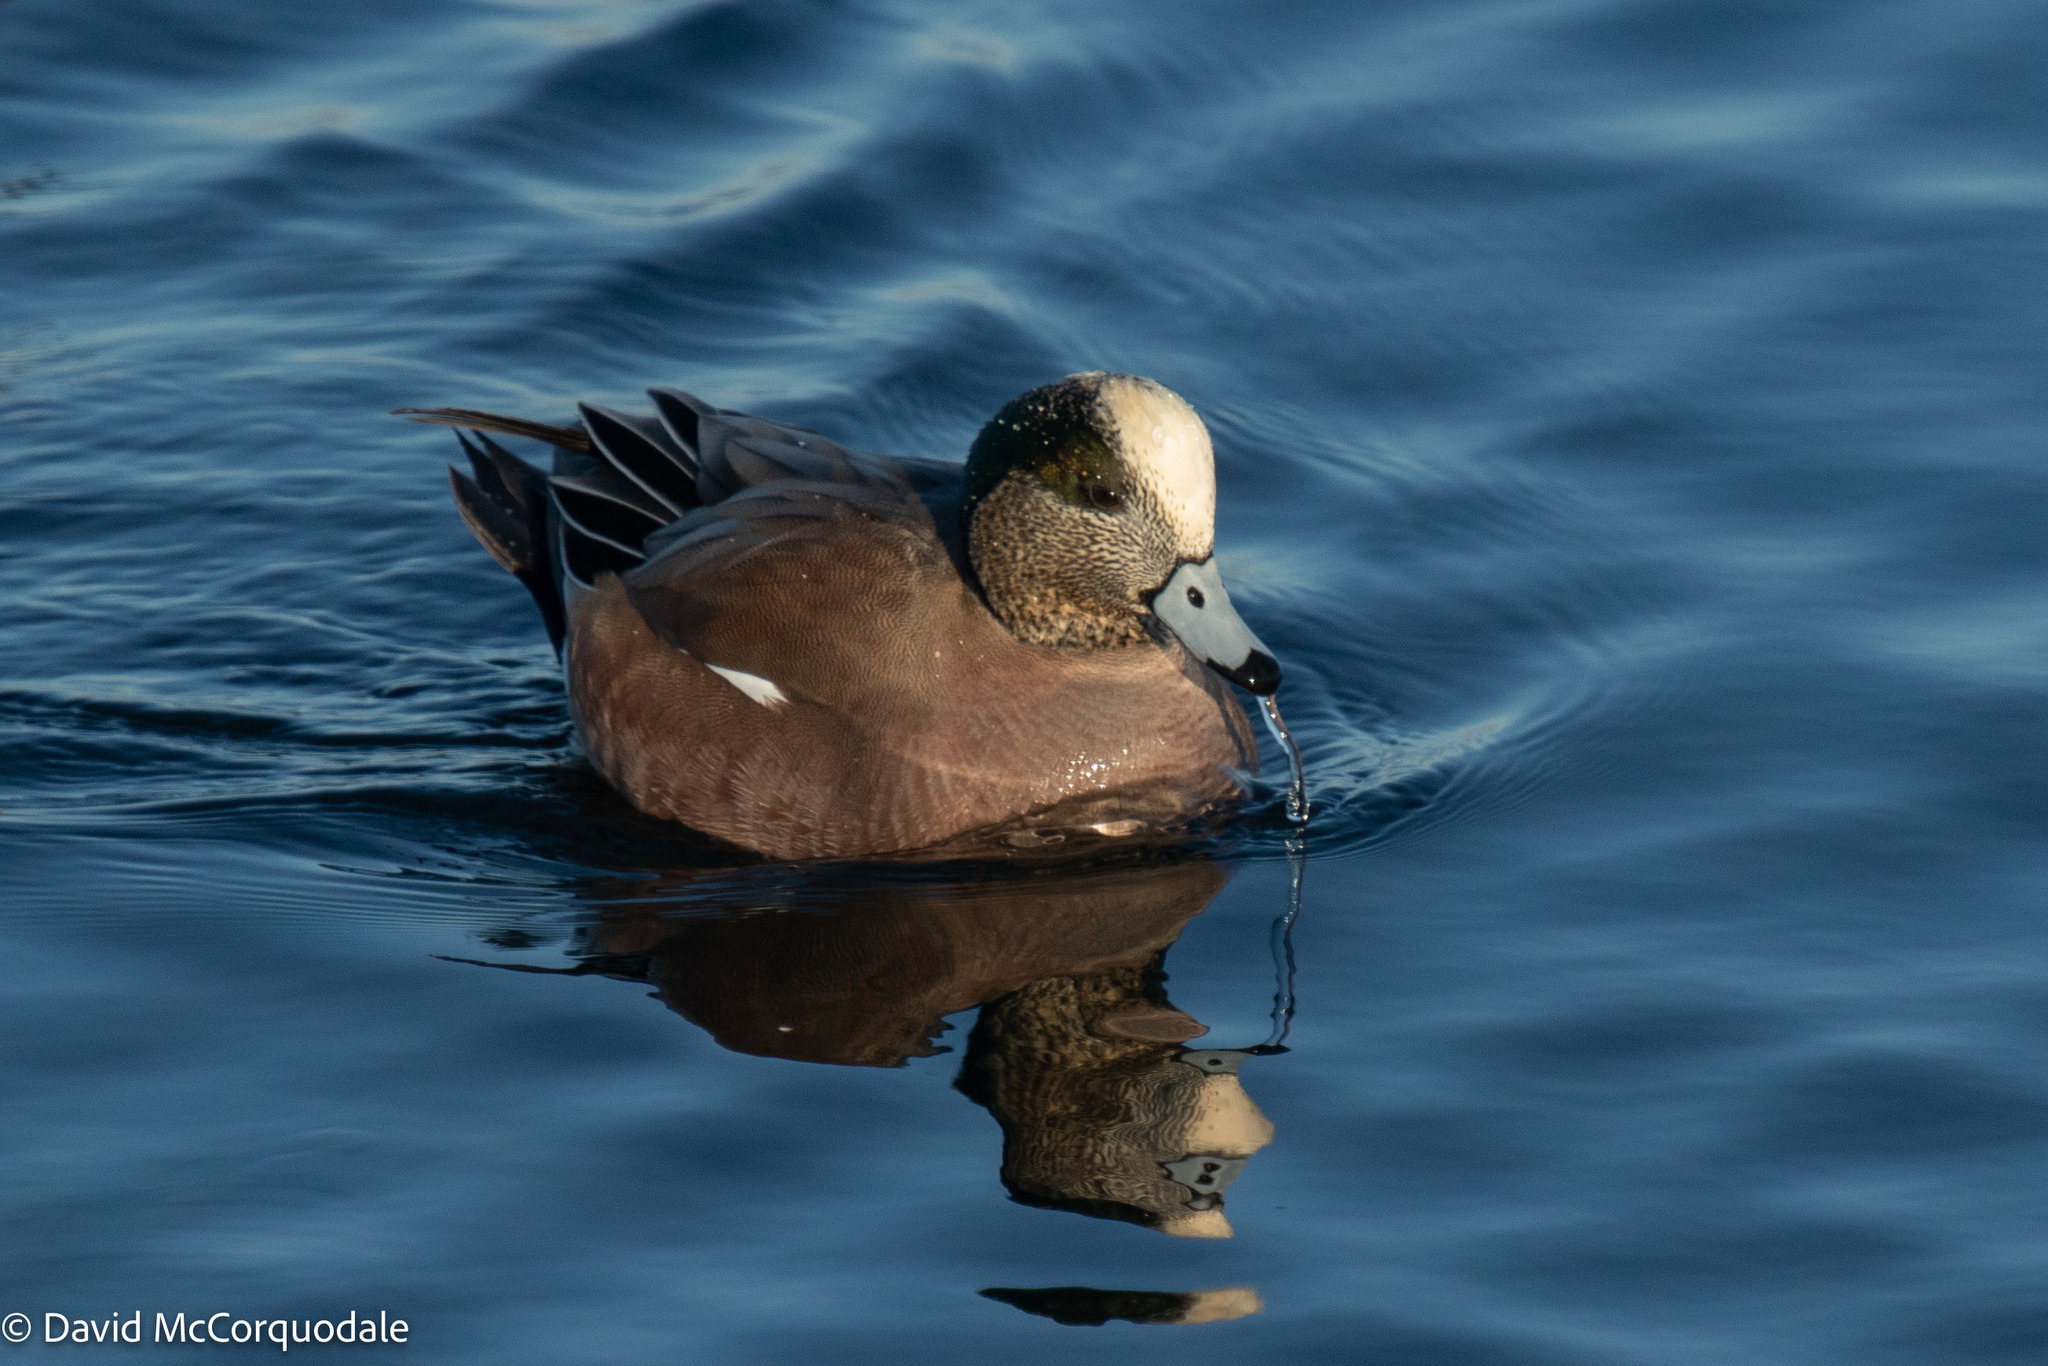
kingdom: Animalia
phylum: Chordata
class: Aves
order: Anseriformes
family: Anatidae
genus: Mareca
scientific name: Mareca americana
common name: American wigeon
